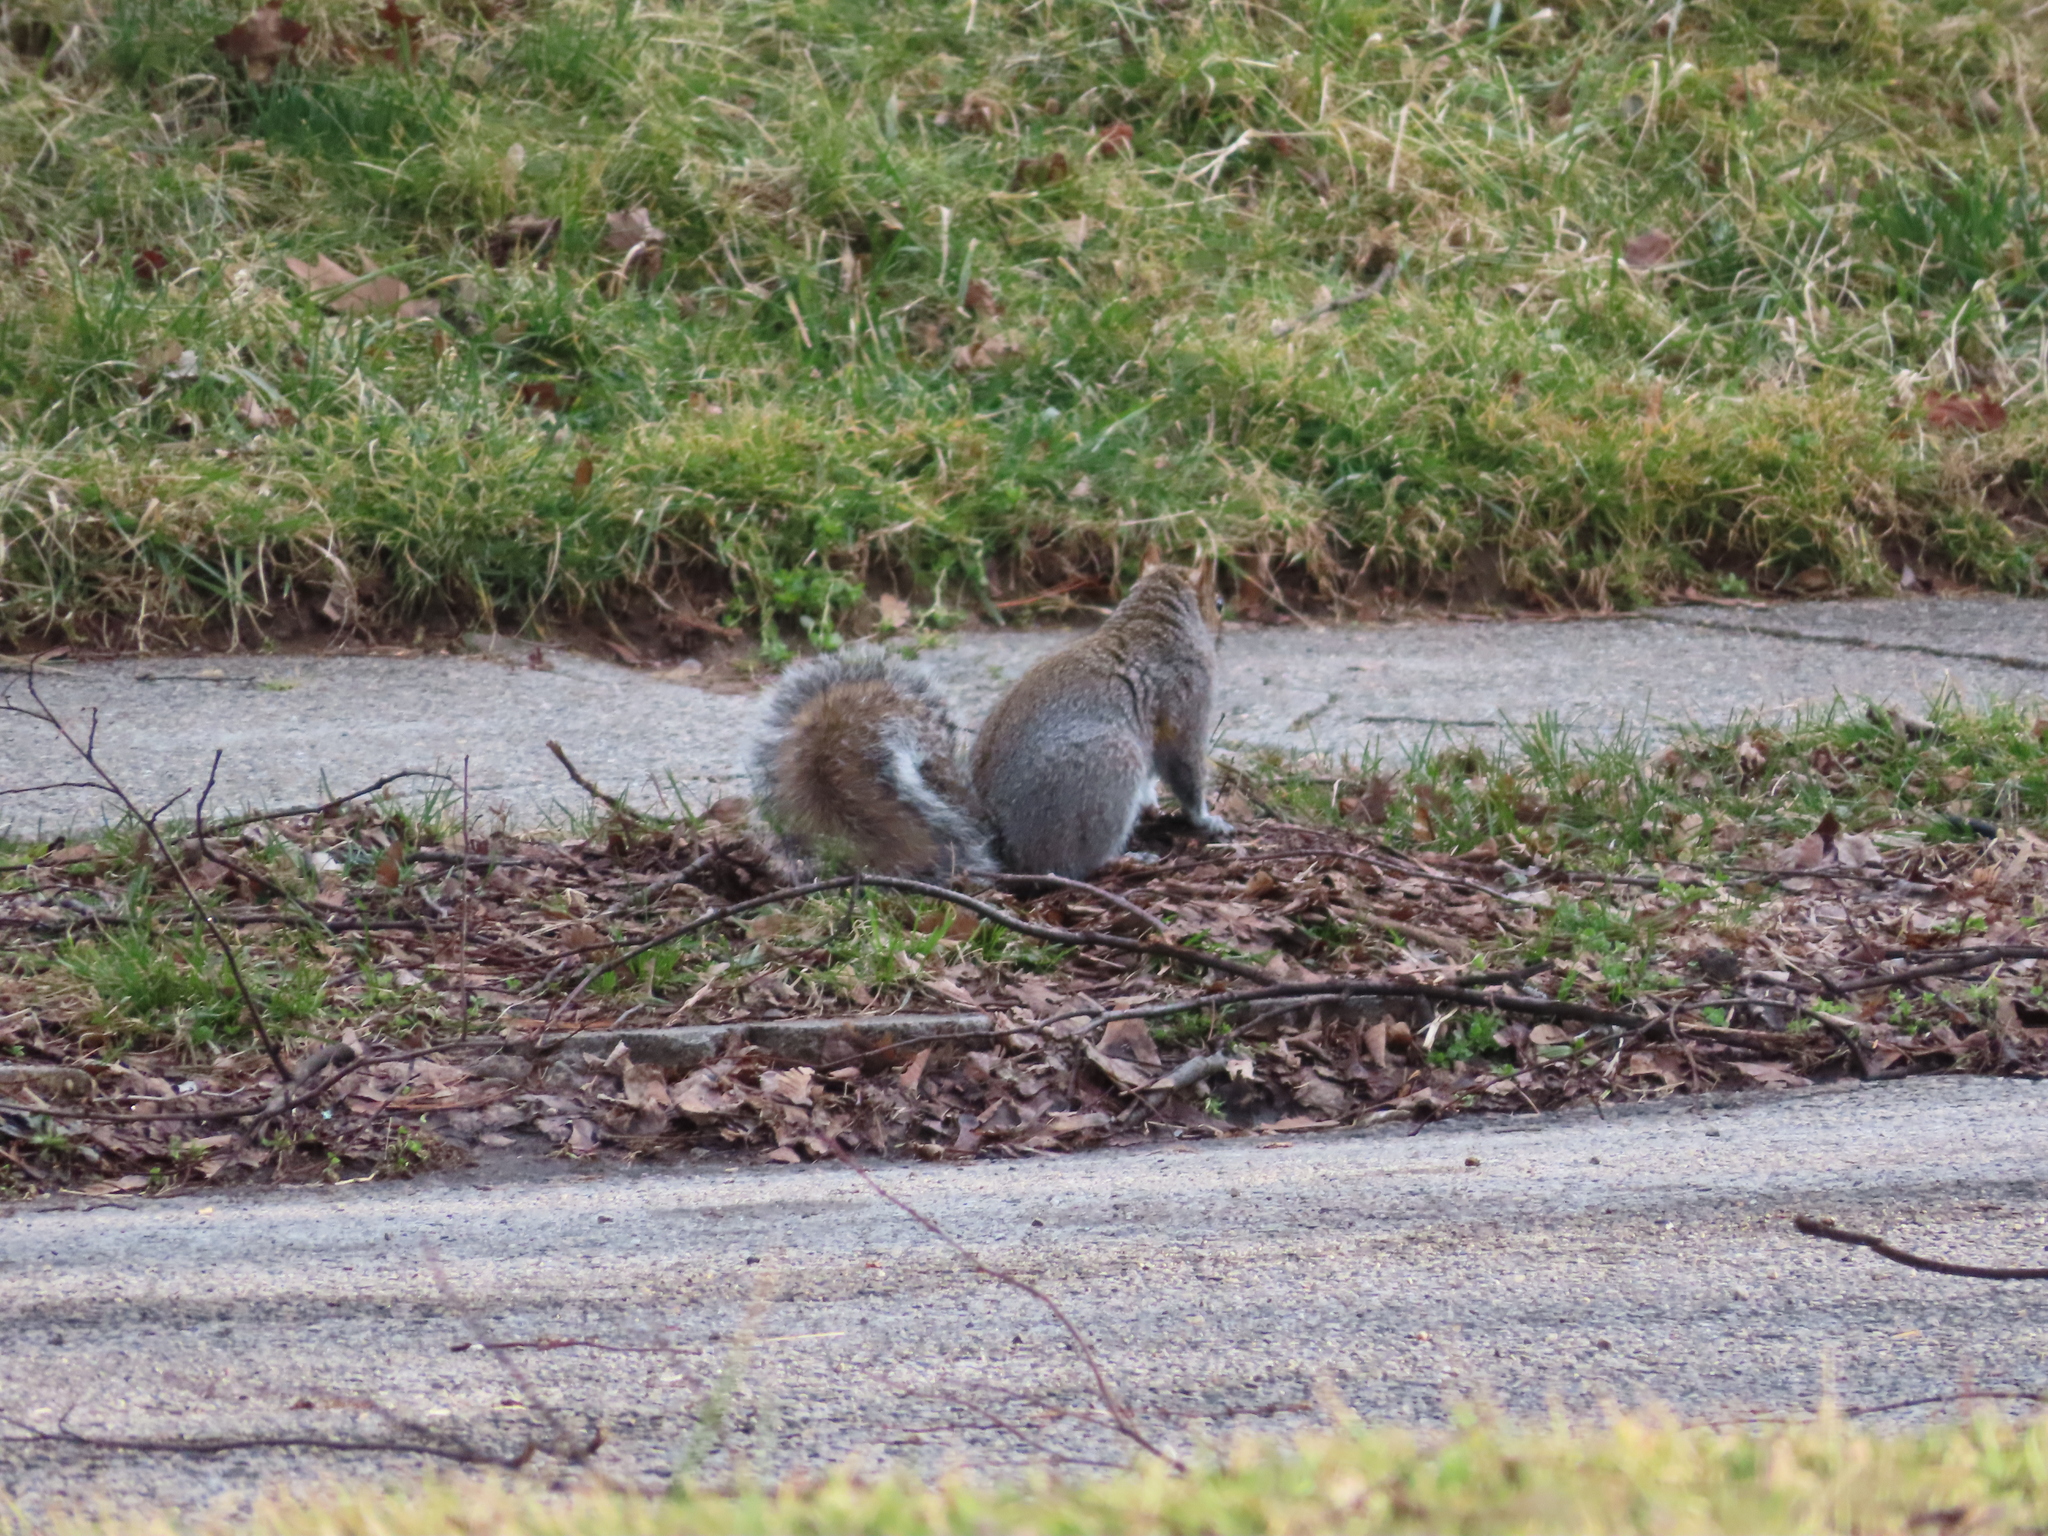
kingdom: Animalia
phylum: Chordata
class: Mammalia
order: Rodentia
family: Sciuridae
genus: Sciurus
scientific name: Sciurus carolinensis
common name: Eastern gray squirrel
